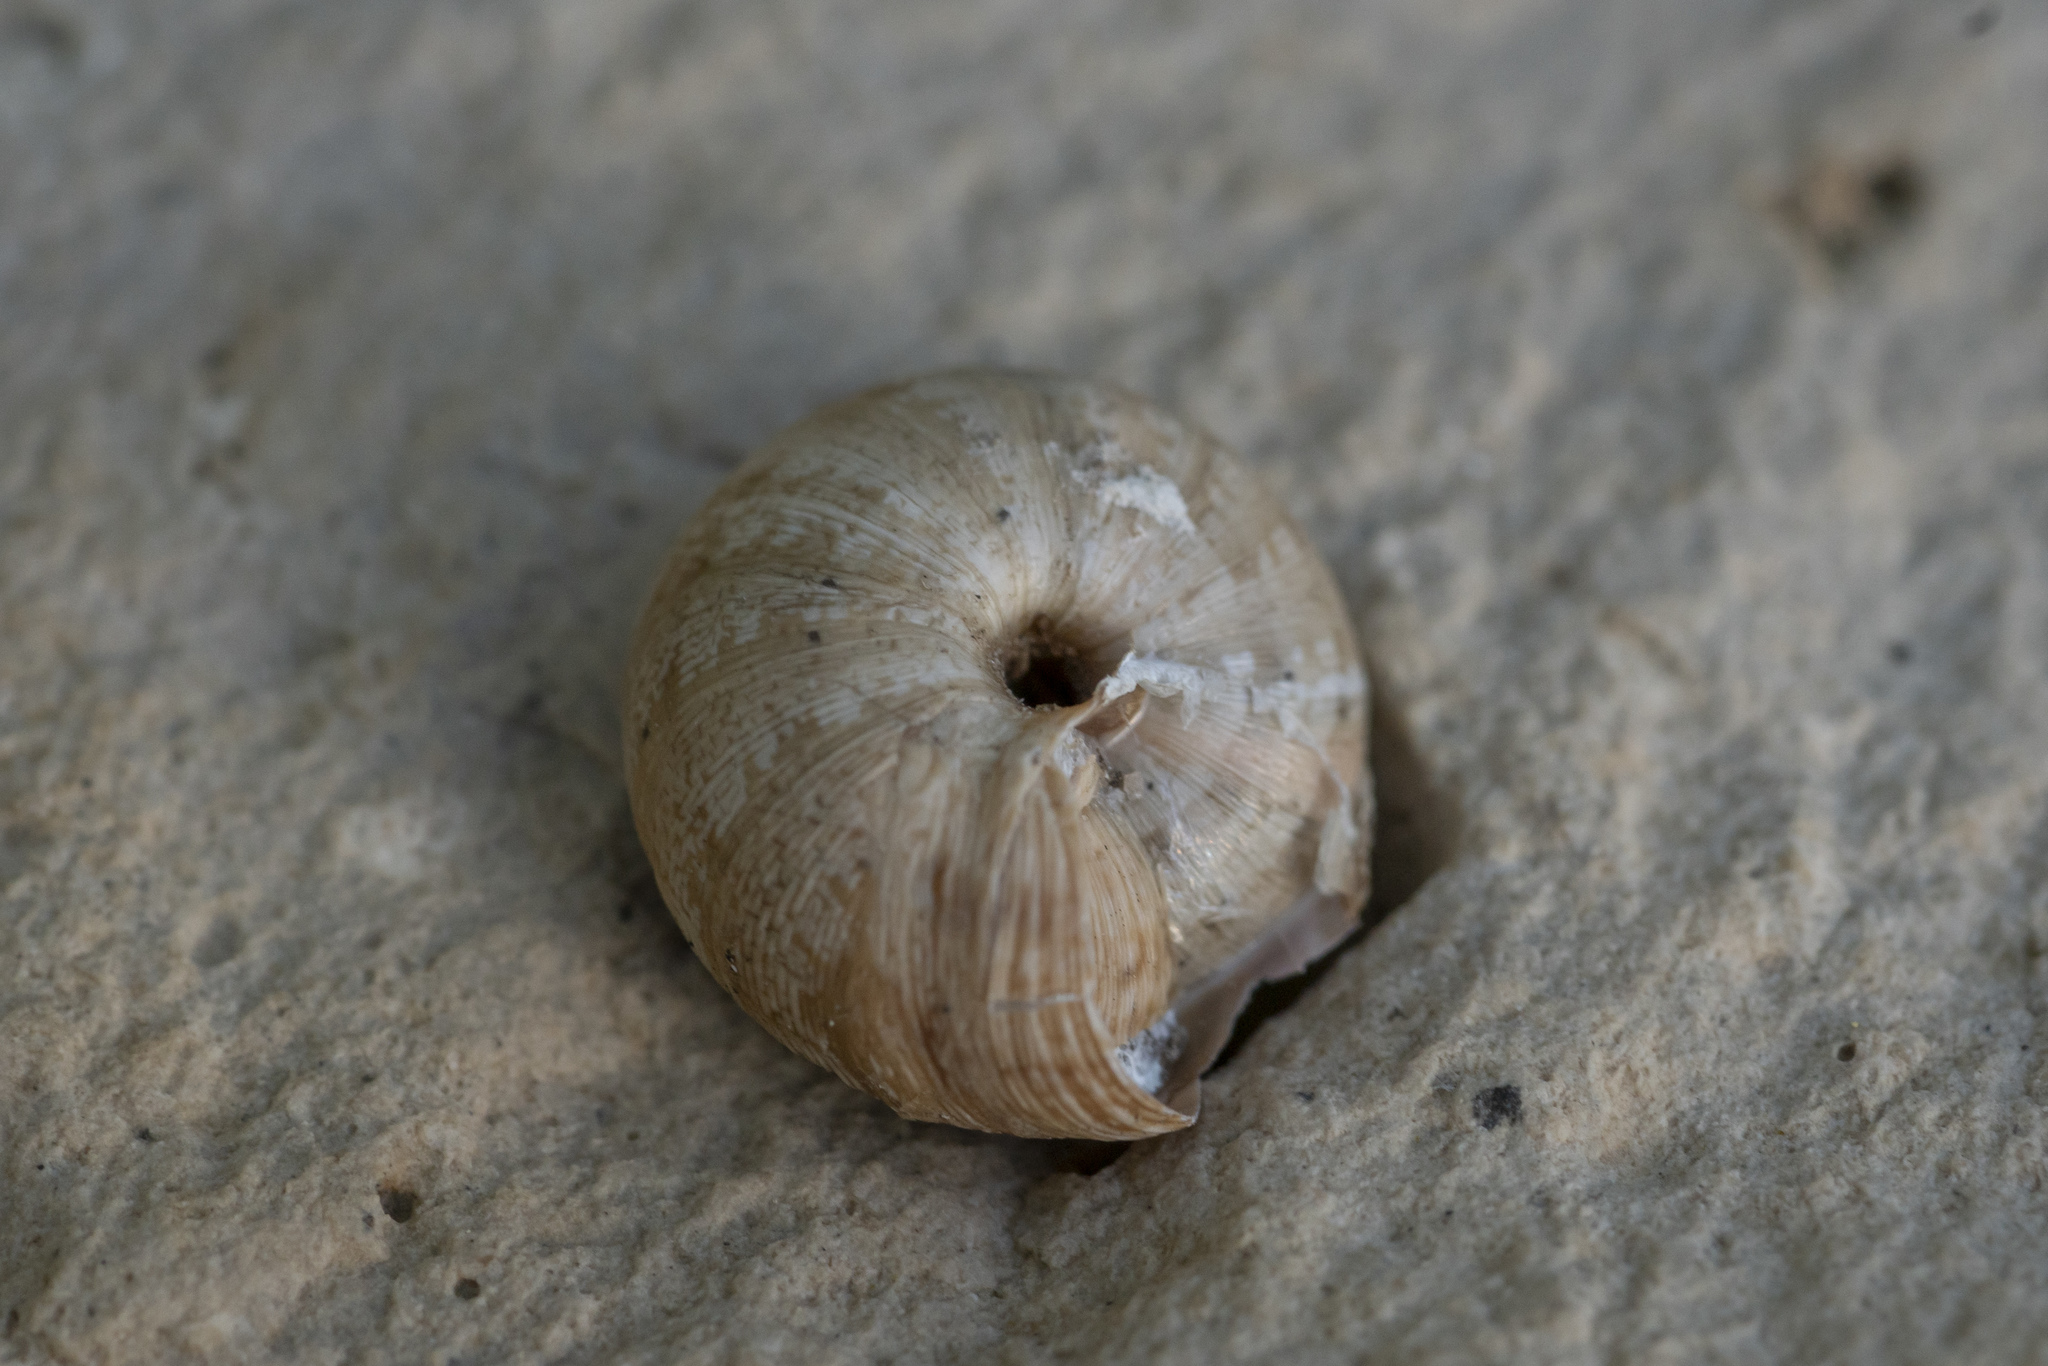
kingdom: Animalia
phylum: Mollusca
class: Gastropoda
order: Stylommatophora
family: Geomitridae
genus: Xeropicta
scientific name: Xeropicta krynickii
